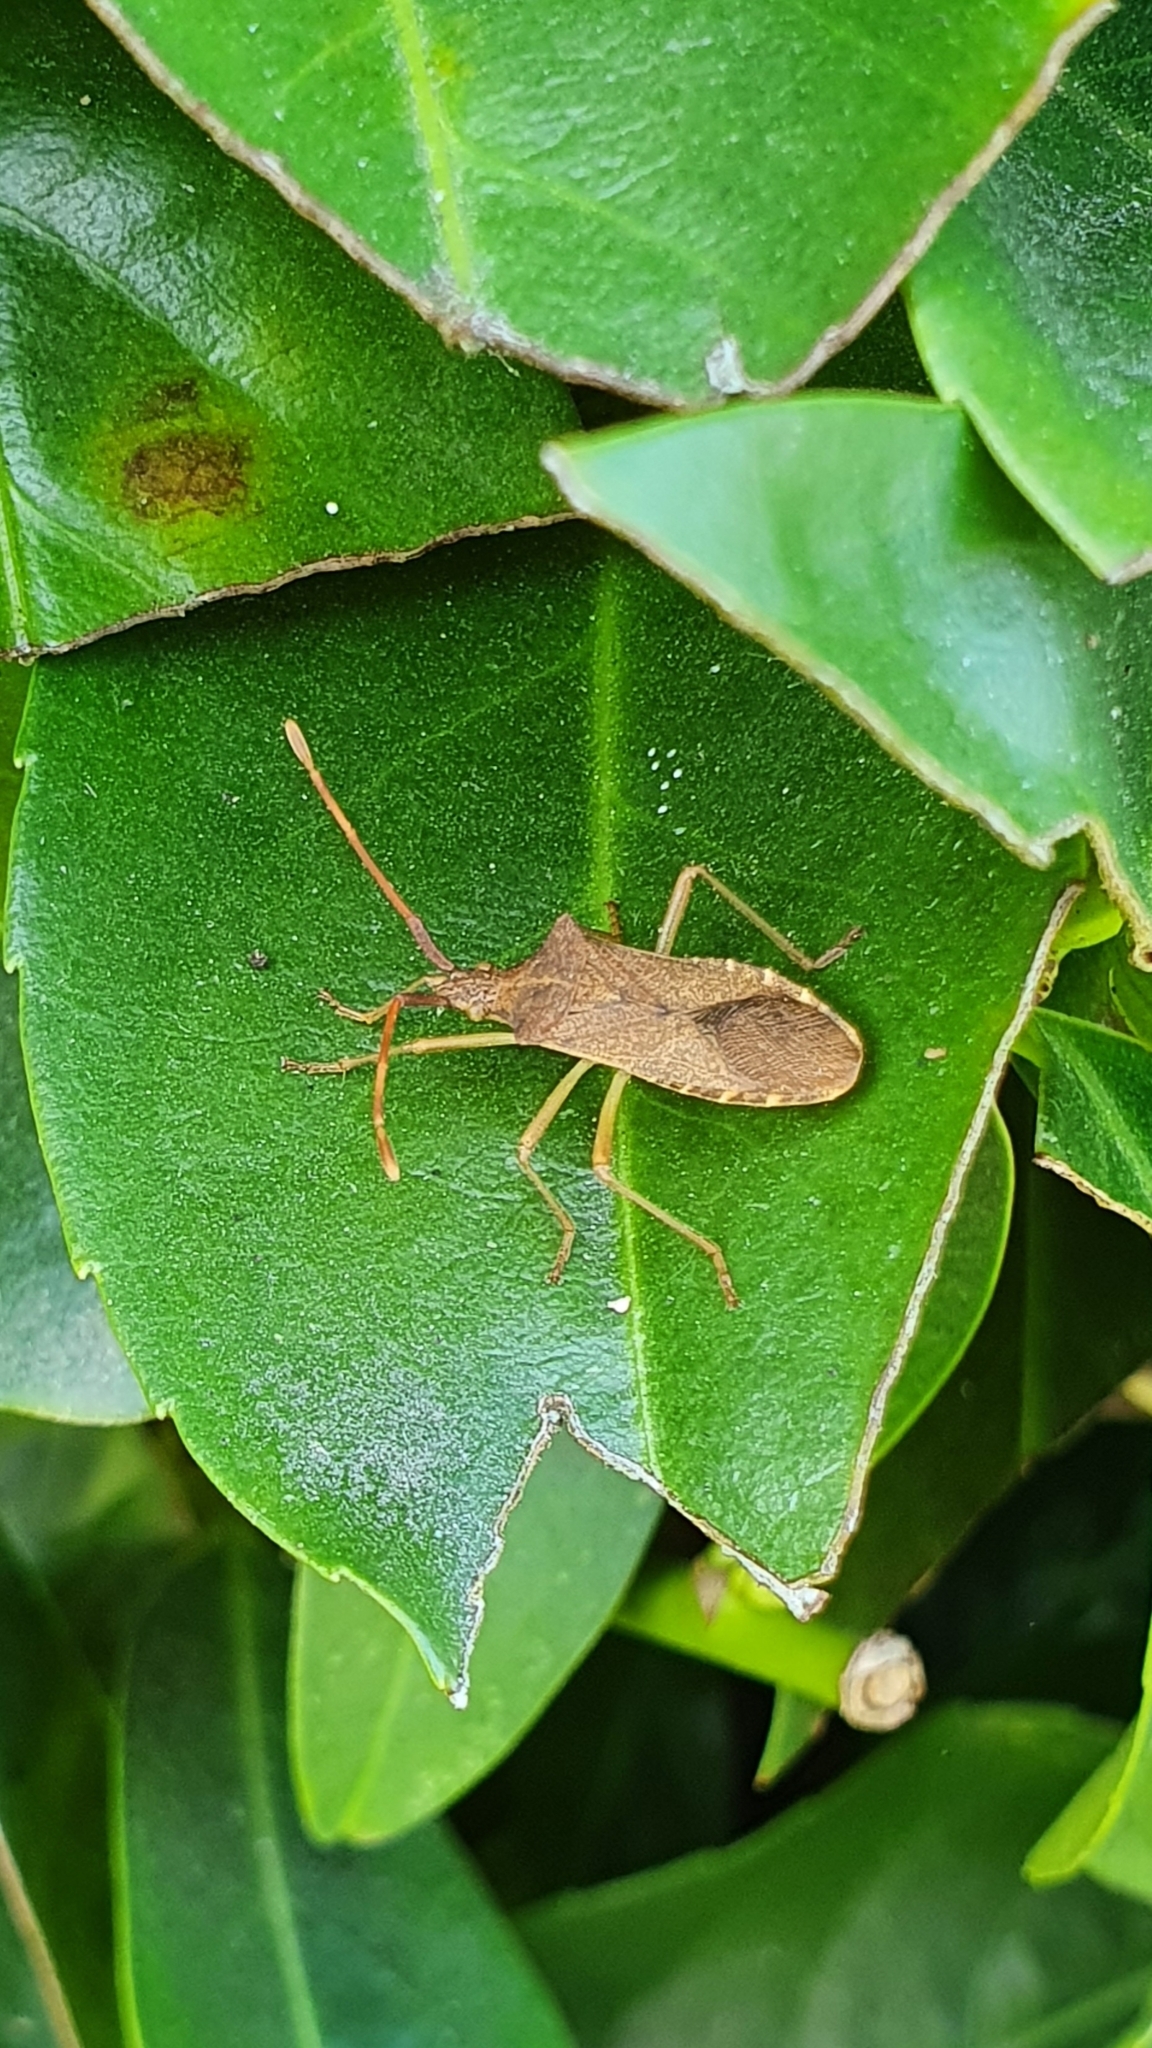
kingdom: Animalia
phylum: Arthropoda
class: Insecta
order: Hemiptera
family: Coreidae
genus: Gonocerus
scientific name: Gonocerus acuteangulatus
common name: Box bug
